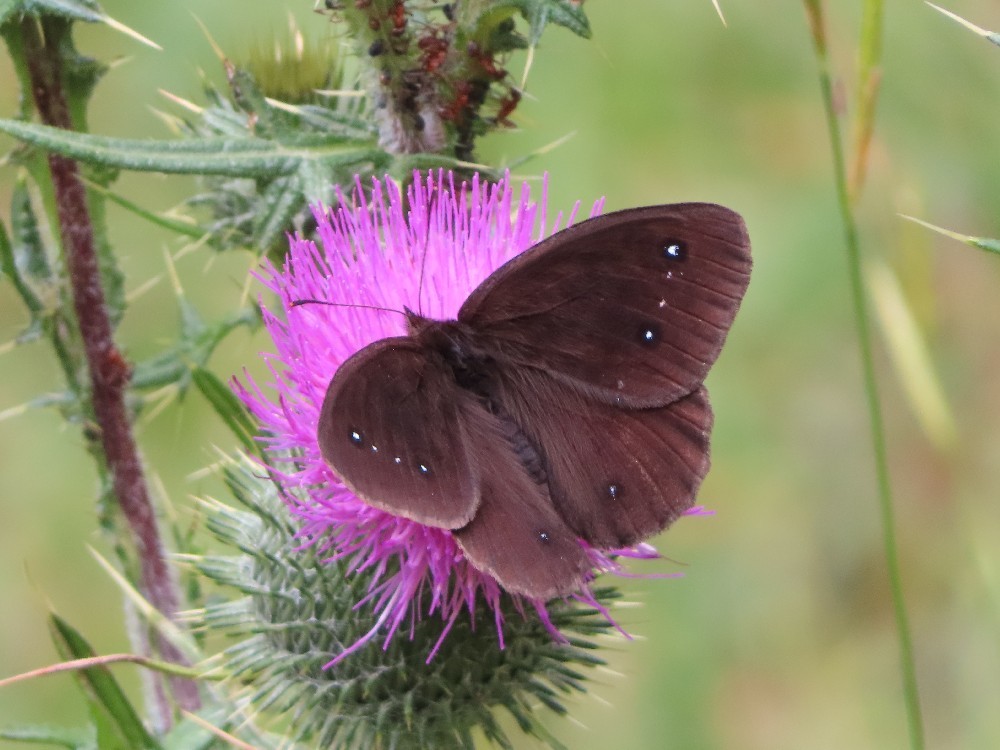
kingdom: Animalia
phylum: Arthropoda
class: Insecta
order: Lepidoptera
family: Nymphalidae
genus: Satyrus
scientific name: Satyrus ferula
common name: Great sooty satyr
